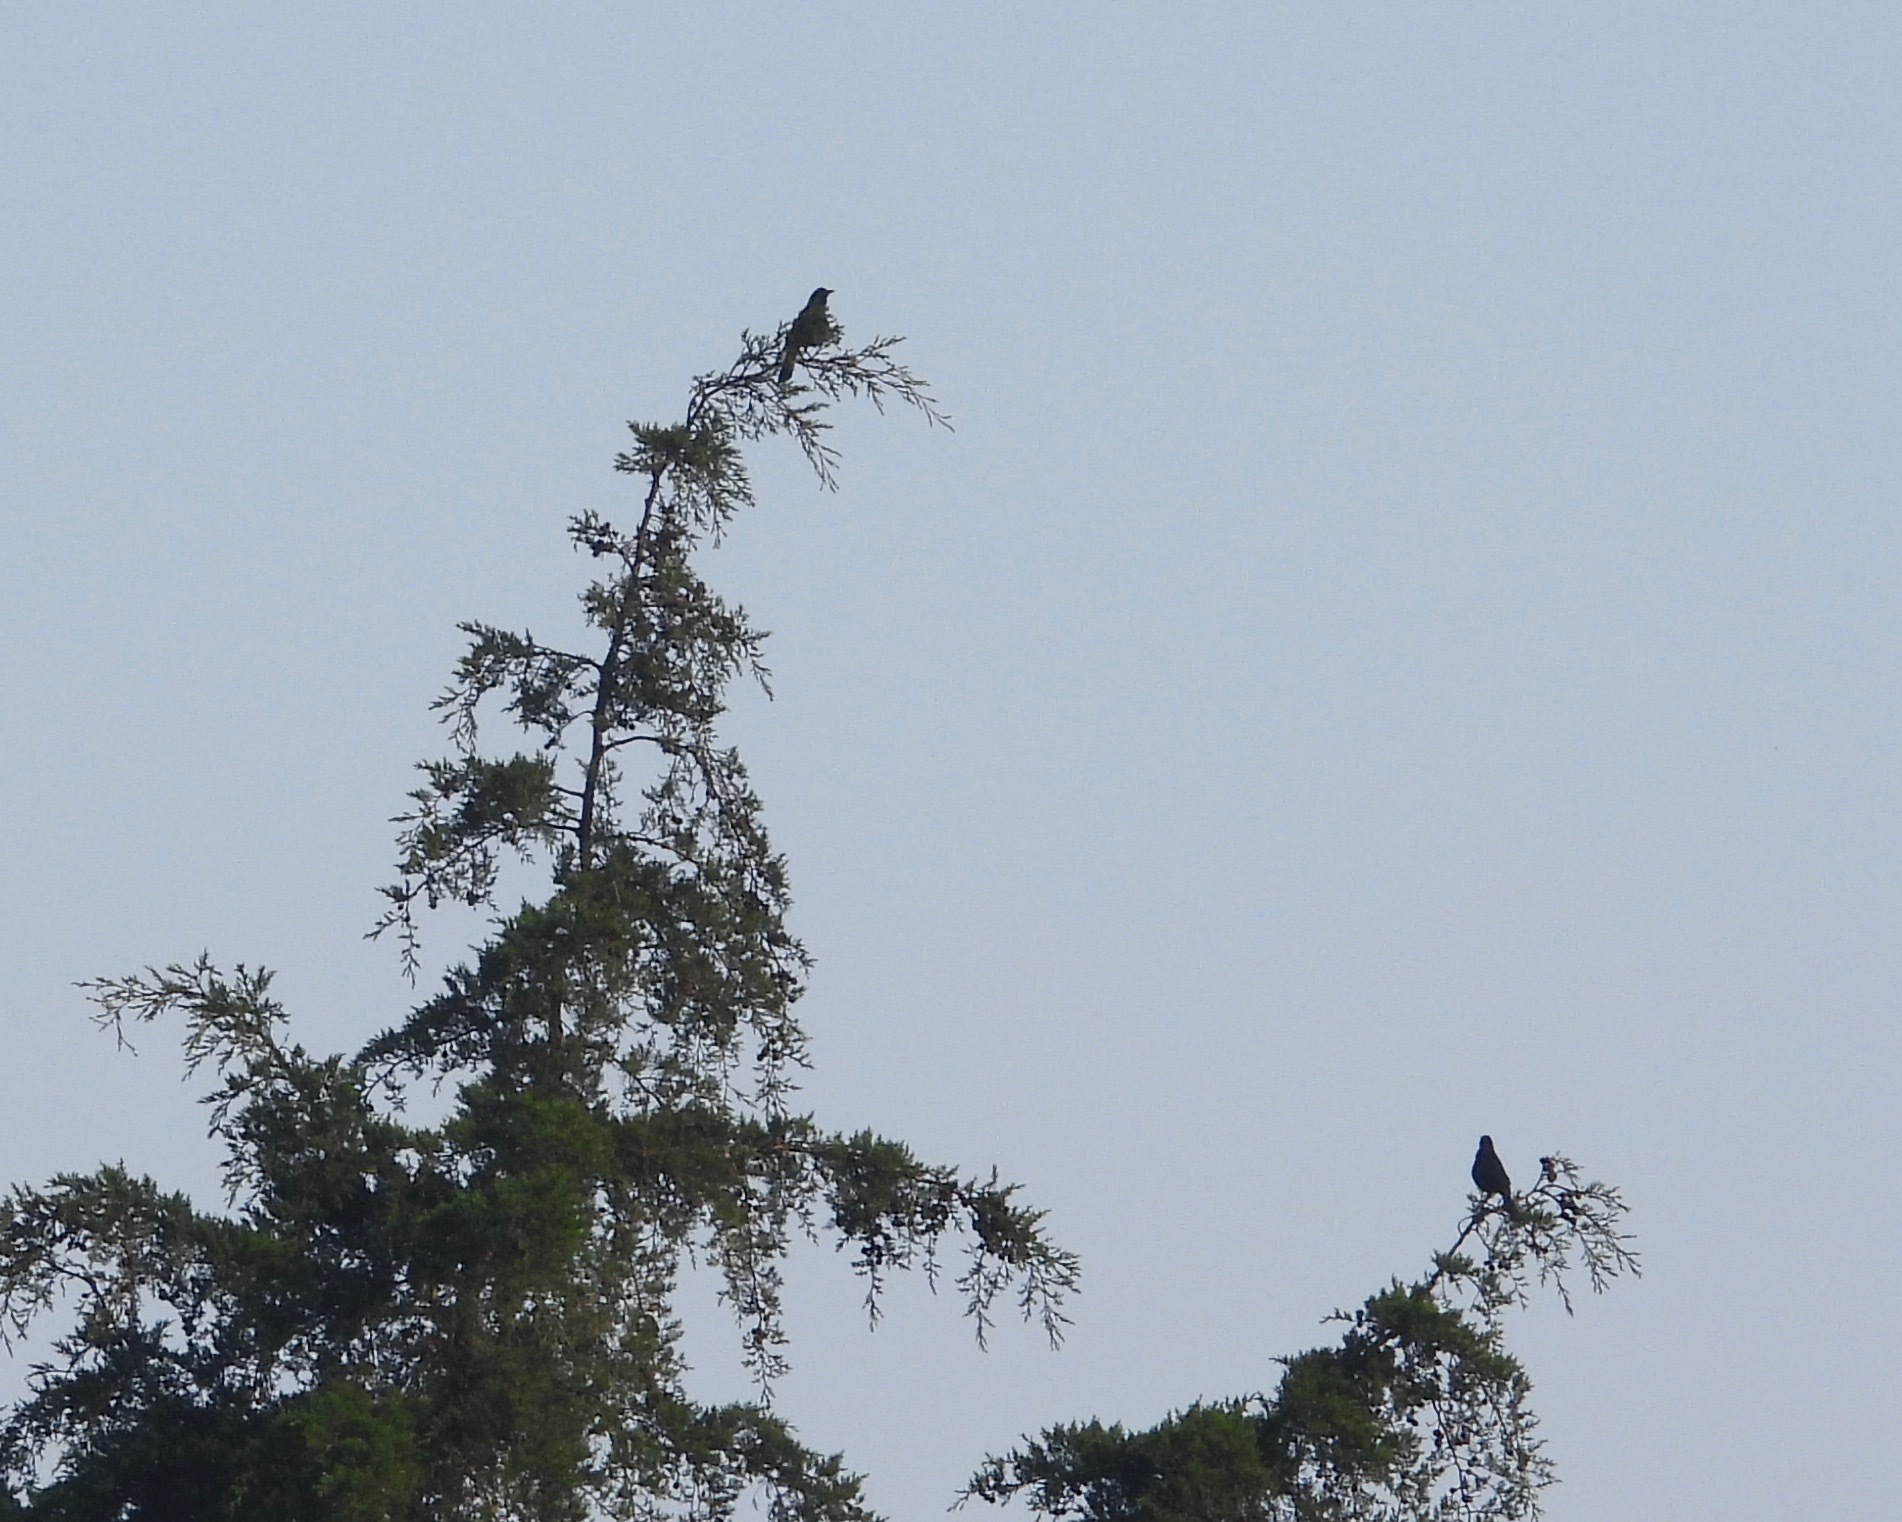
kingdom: Animalia
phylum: Chordata
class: Aves
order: Passeriformes
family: Icteridae
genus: Dives
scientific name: Dives dives
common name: Melodious blackbird
